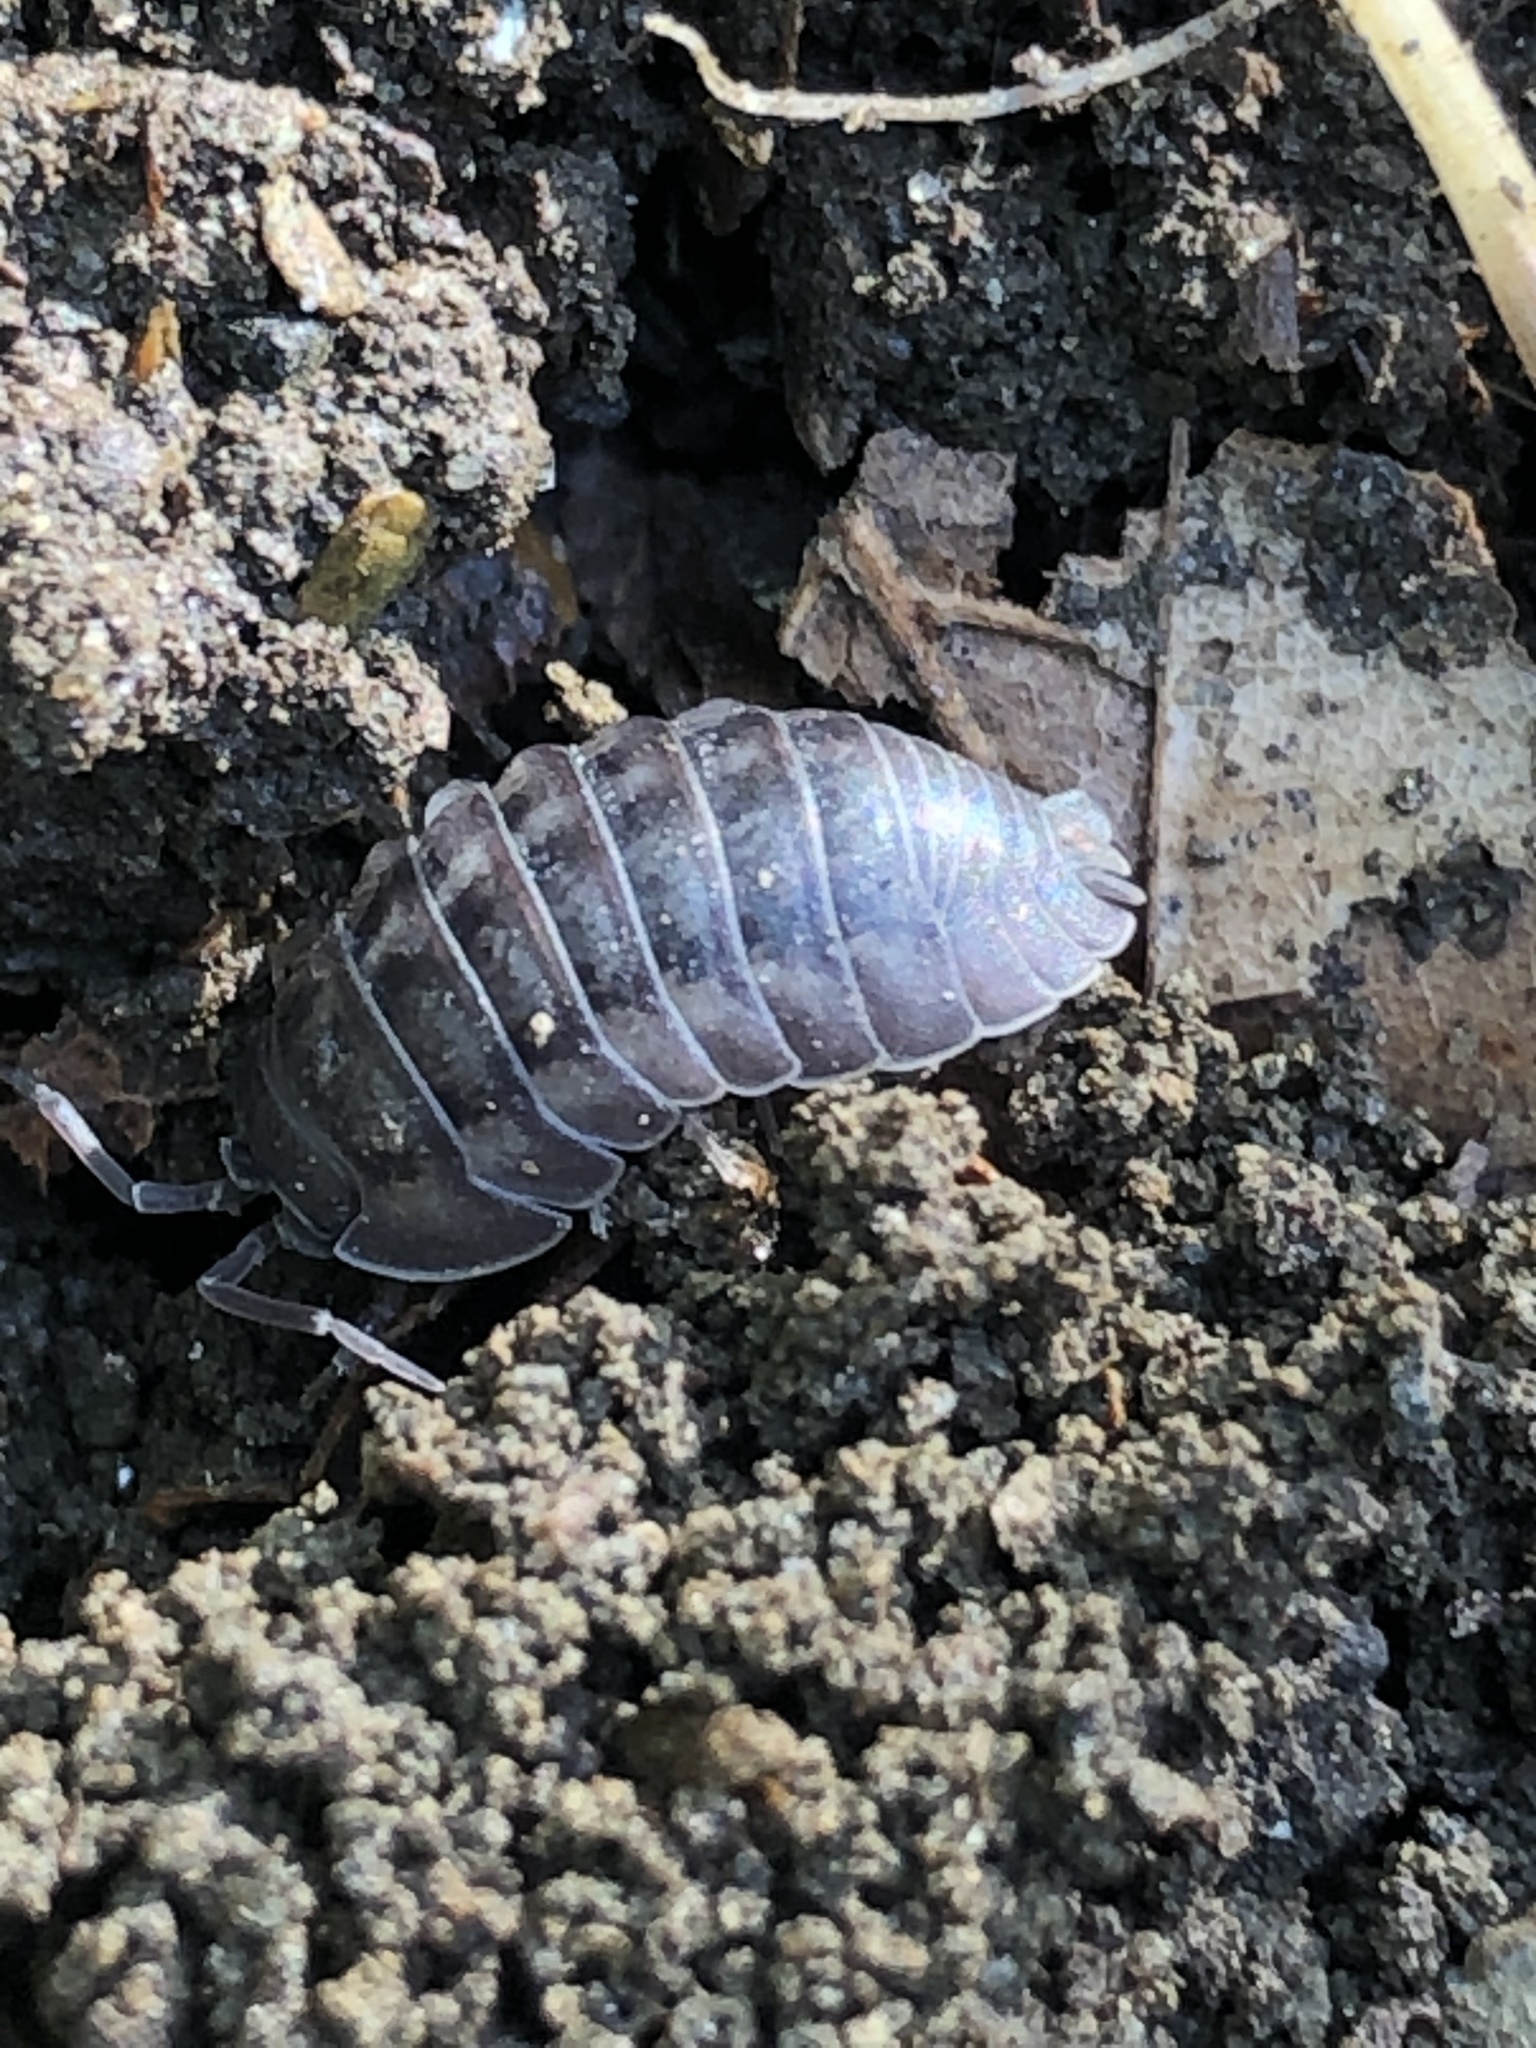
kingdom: Animalia
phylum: Arthropoda
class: Malacostraca
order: Isopoda
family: Armadillidiidae
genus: Armadillidium
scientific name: Armadillidium nasatum
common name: Isopod
